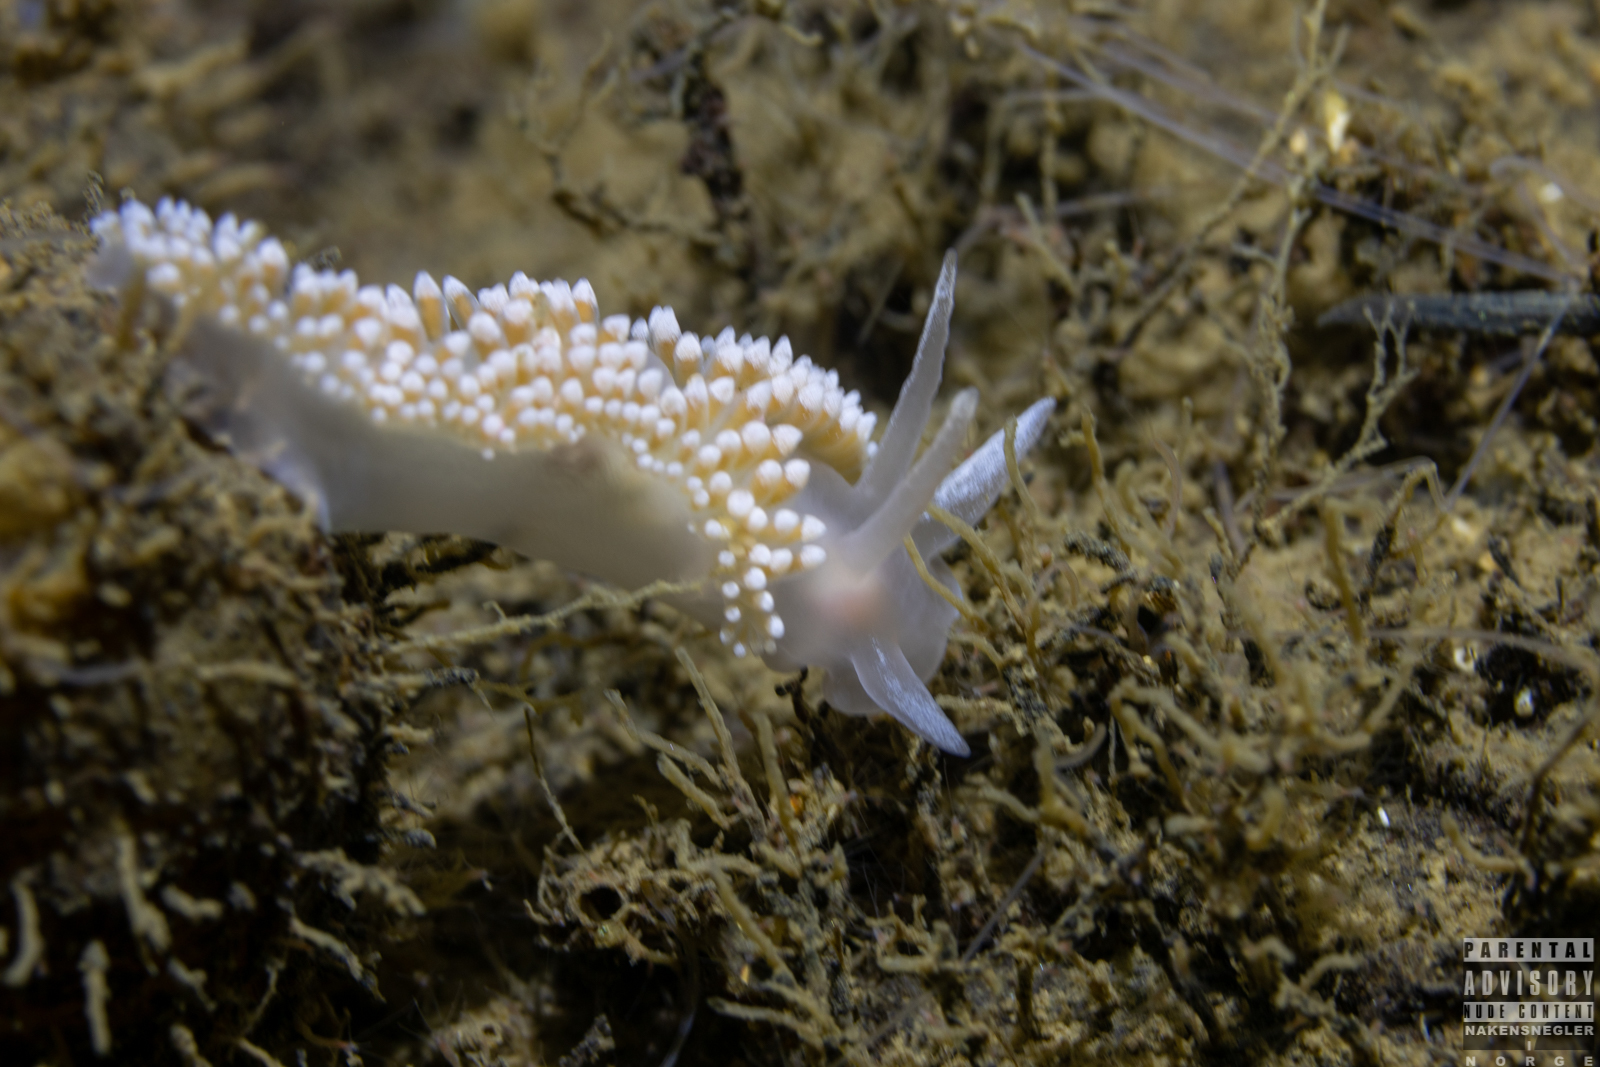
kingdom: Animalia
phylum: Mollusca
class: Gastropoda
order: Nudibranchia
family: Coryphellidae
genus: Coryphella
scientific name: Coryphella verrucosa
